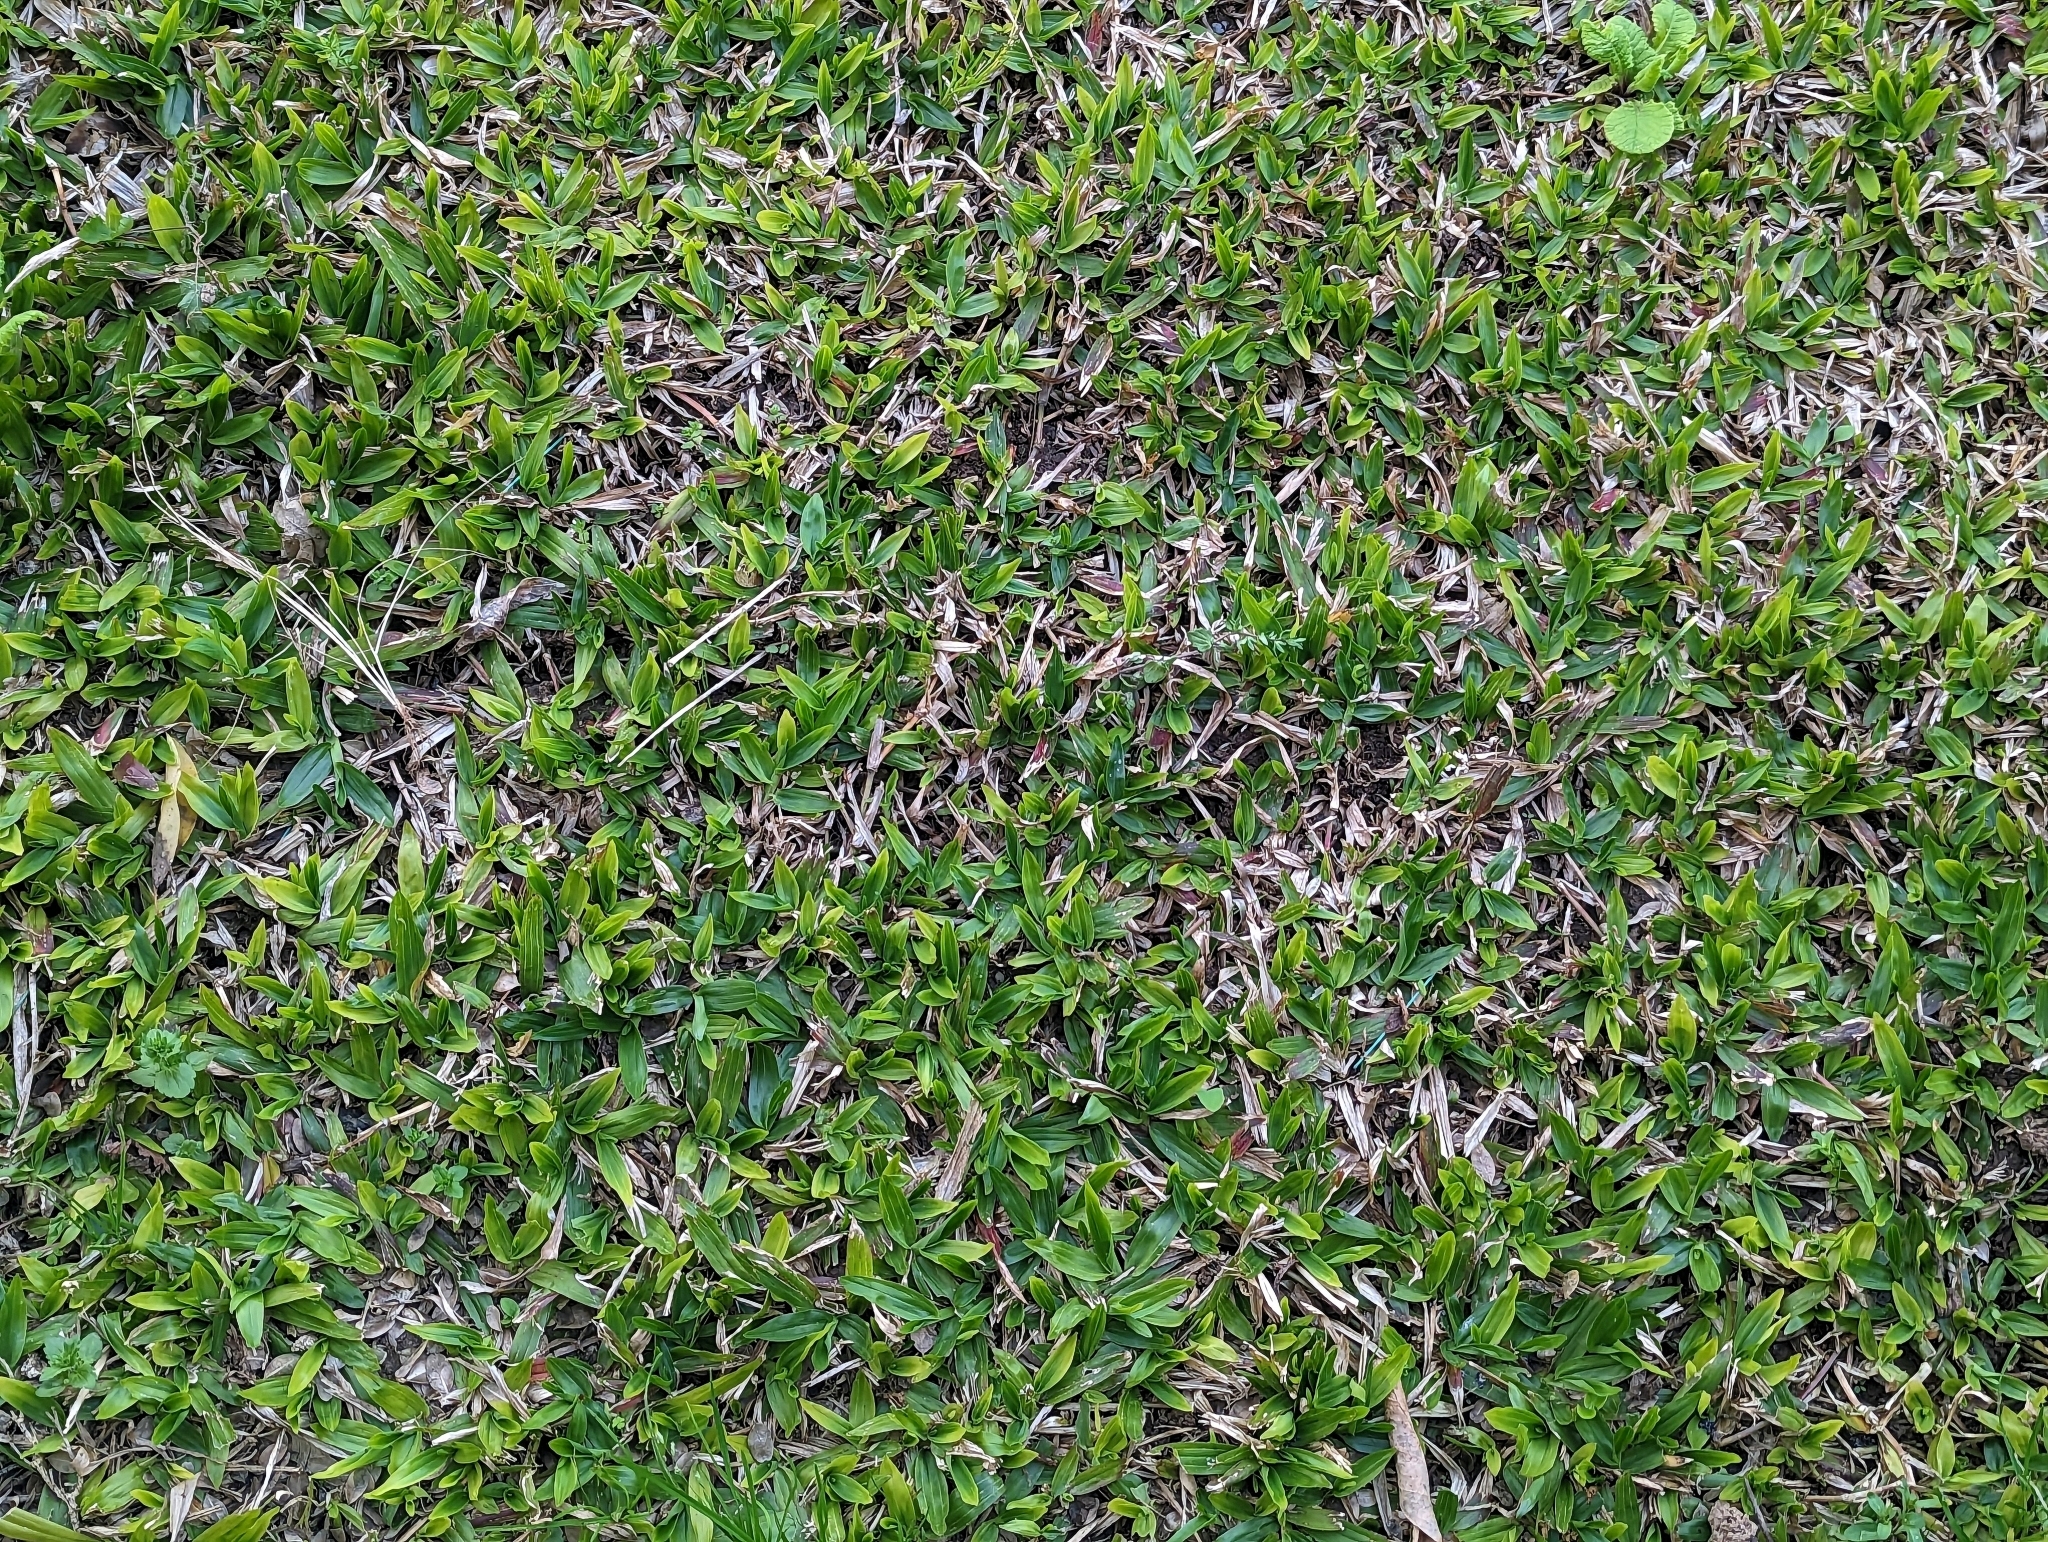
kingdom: Plantae
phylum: Tracheophyta
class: Liliopsida
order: Poales
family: Poaceae
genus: Axonopus
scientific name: Axonopus compressus
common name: American carpet grass
